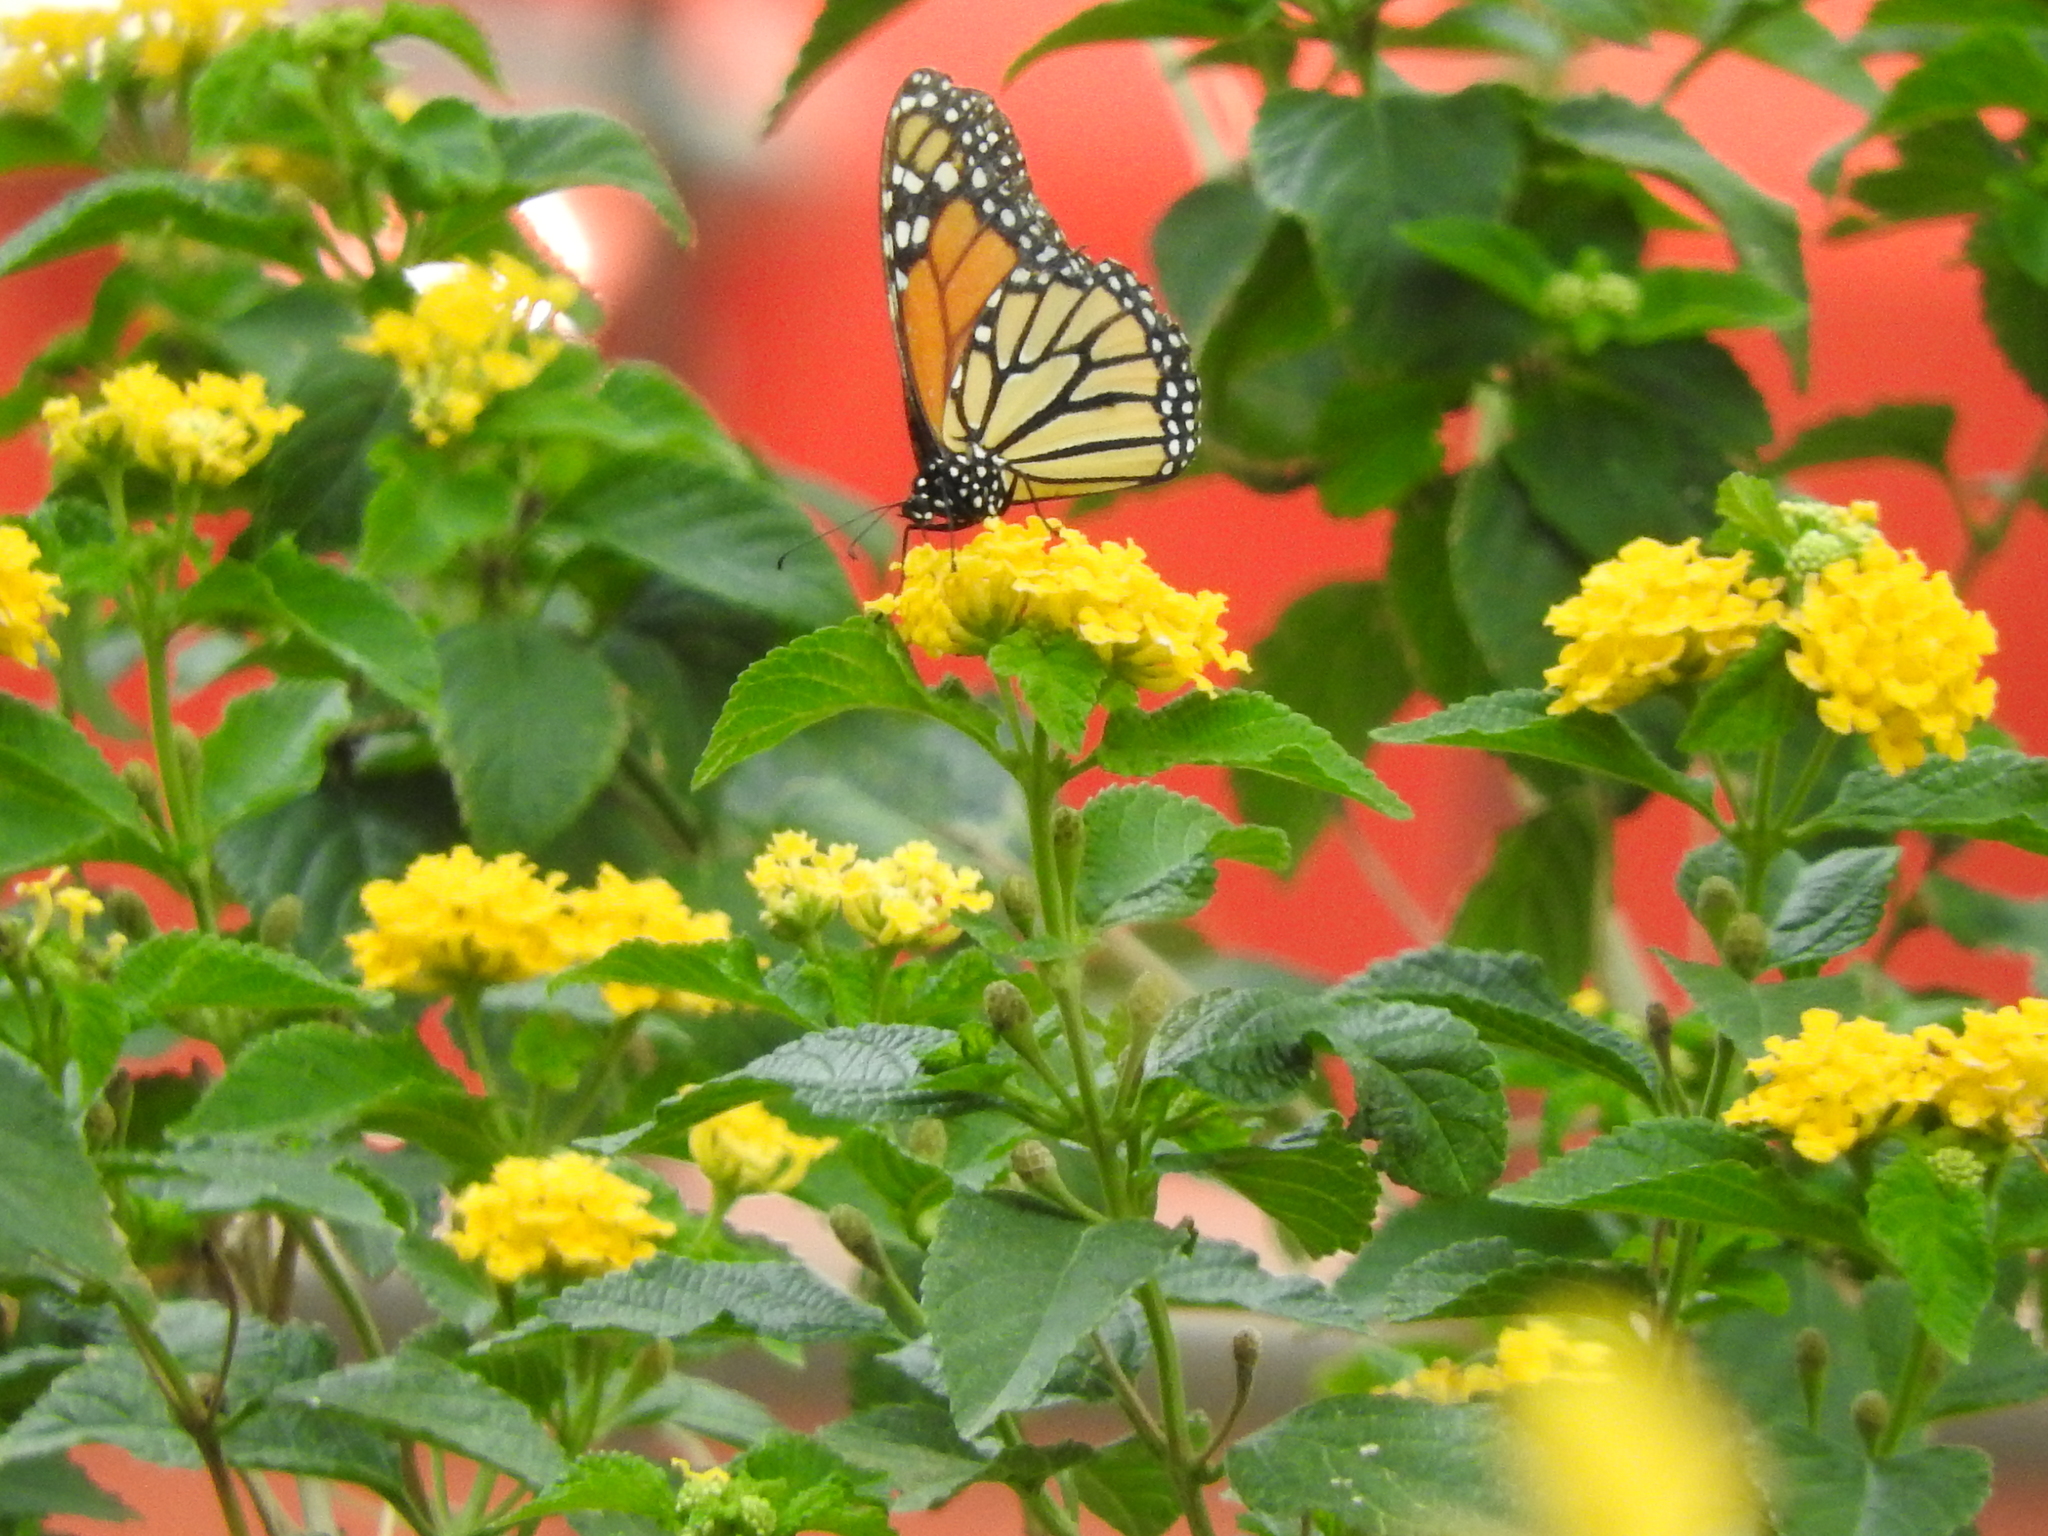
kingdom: Animalia
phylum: Arthropoda
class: Insecta
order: Lepidoptera
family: Nymphalidae
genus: Danaus
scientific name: Danaus plexippus
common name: Monarch
